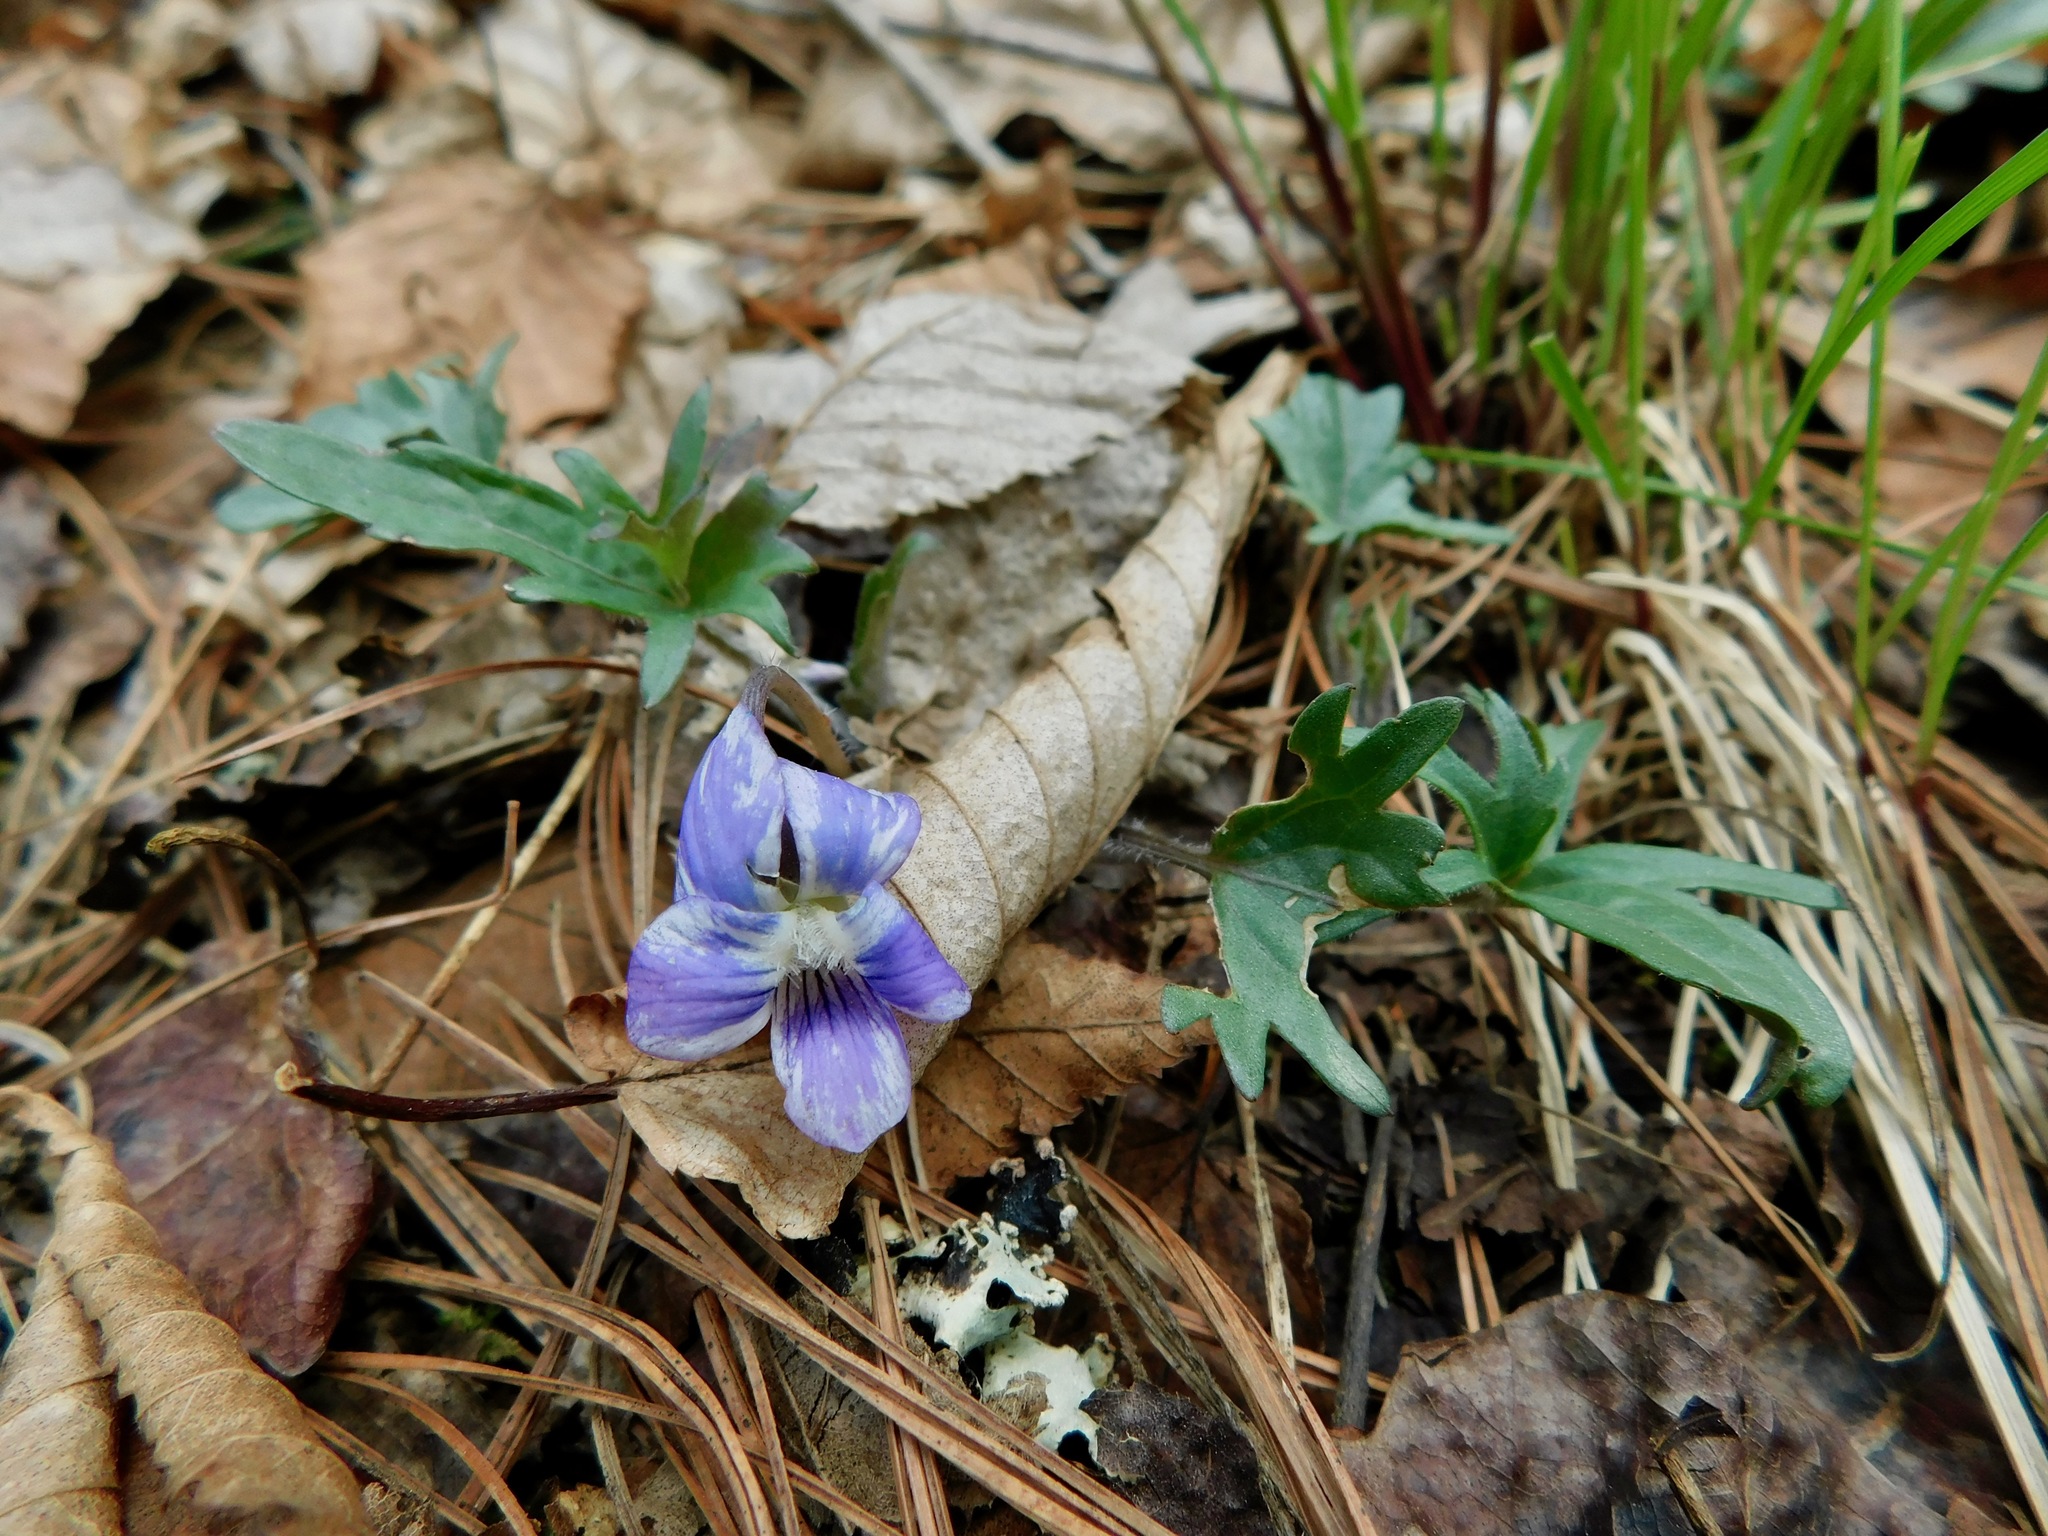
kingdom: Plantae
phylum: Tracheophyta
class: Magnoliopsida
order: Malpighiales
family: Violaceae
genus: Viola
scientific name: Viola palmata
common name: Early blue violet
